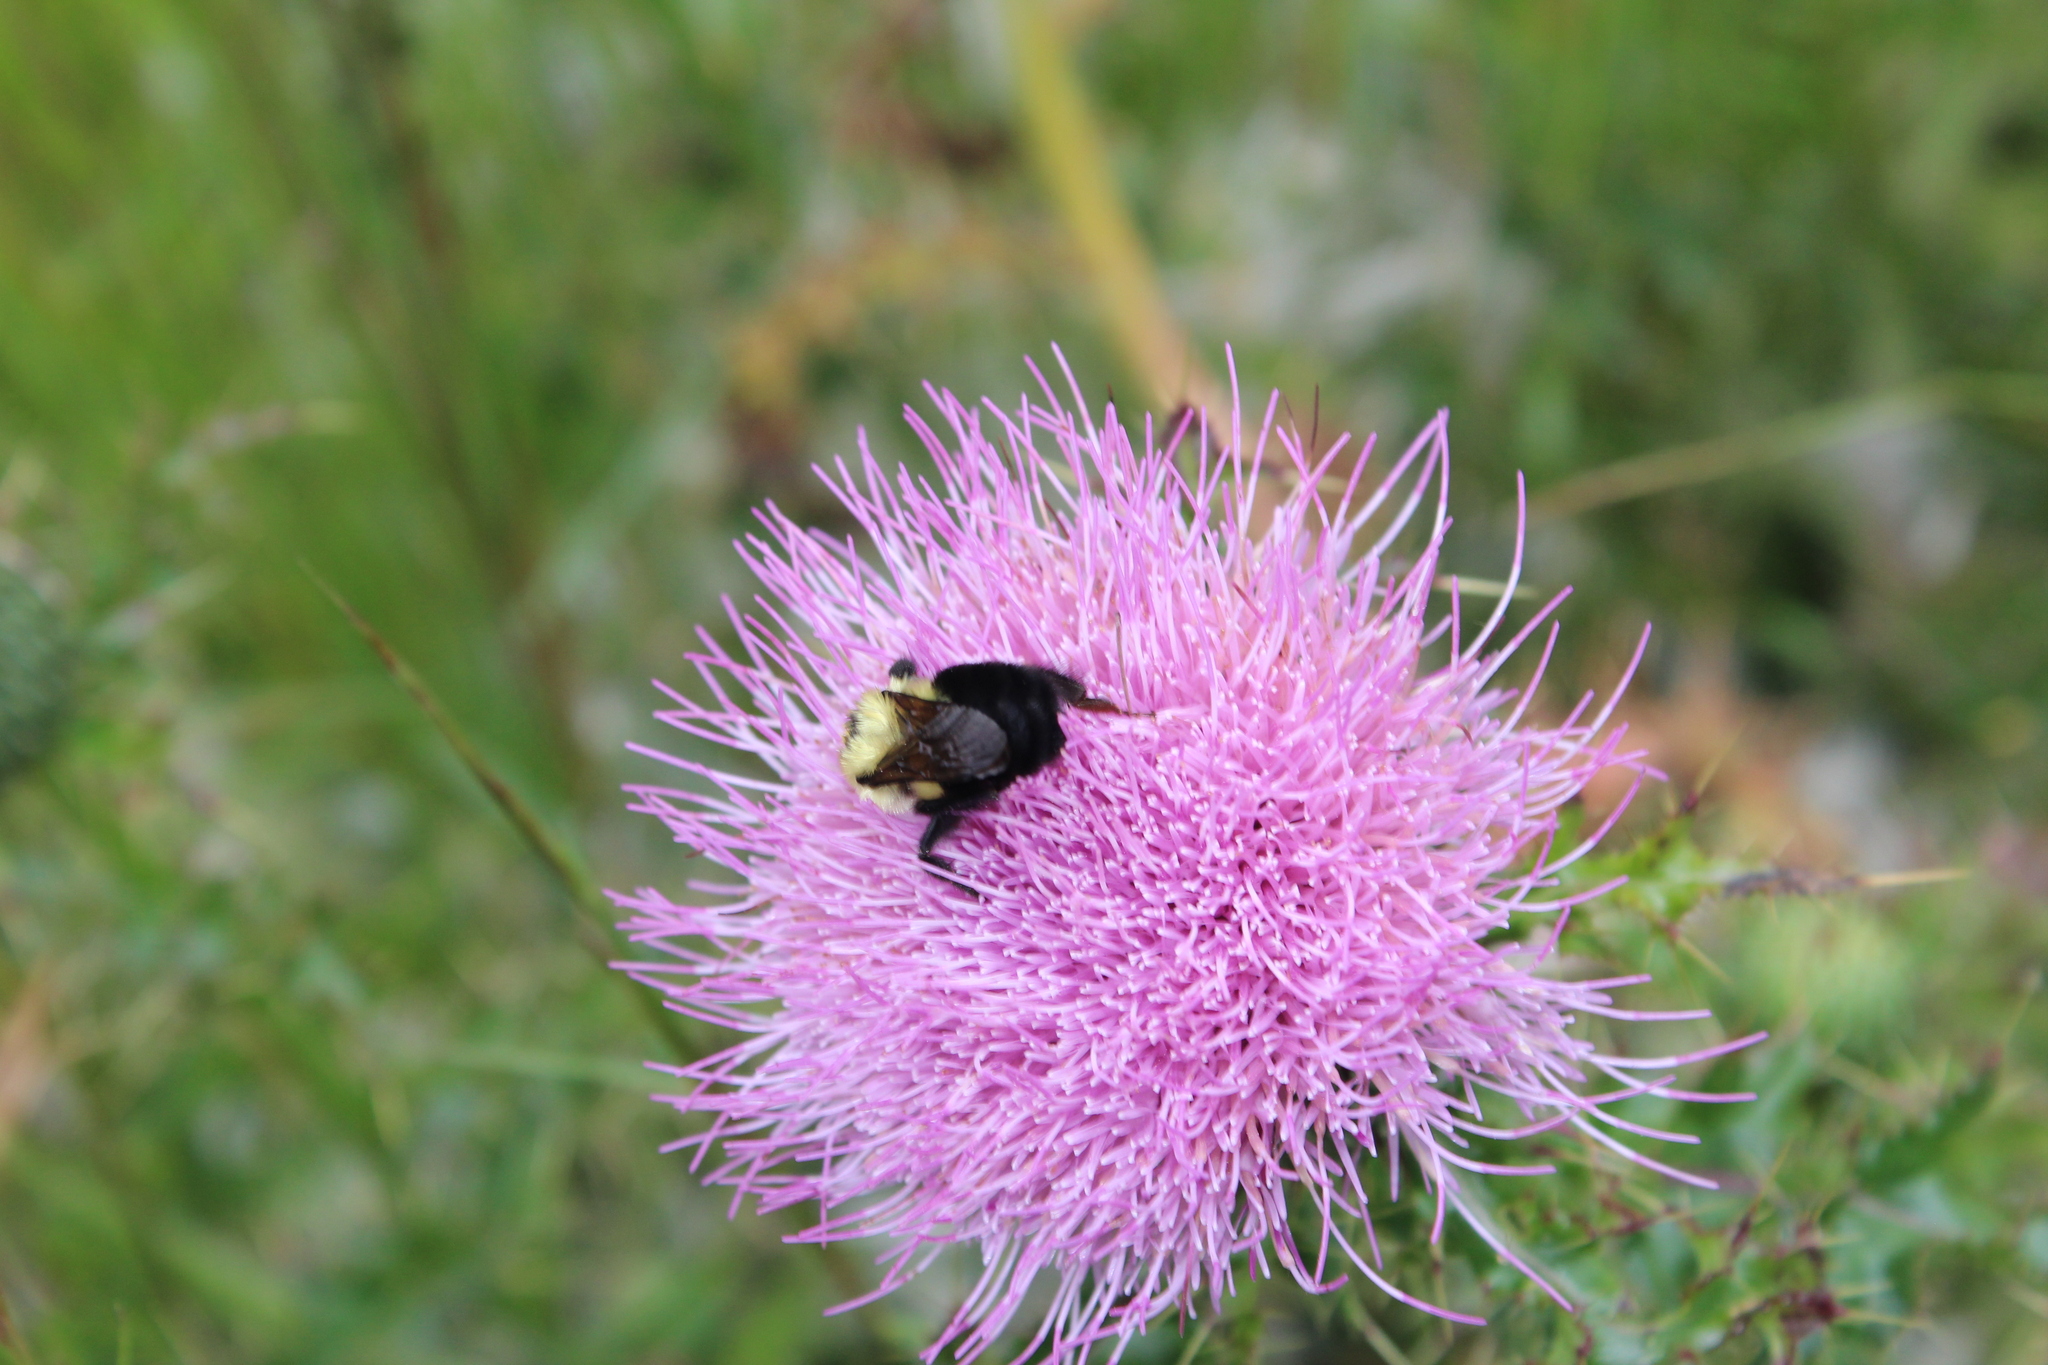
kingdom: Animalia
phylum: Arthropoda
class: Insecta
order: Hymenoptera
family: Apidae
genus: Bombus
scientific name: Bombus bimaculatus
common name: Two-spotted bumble bee
